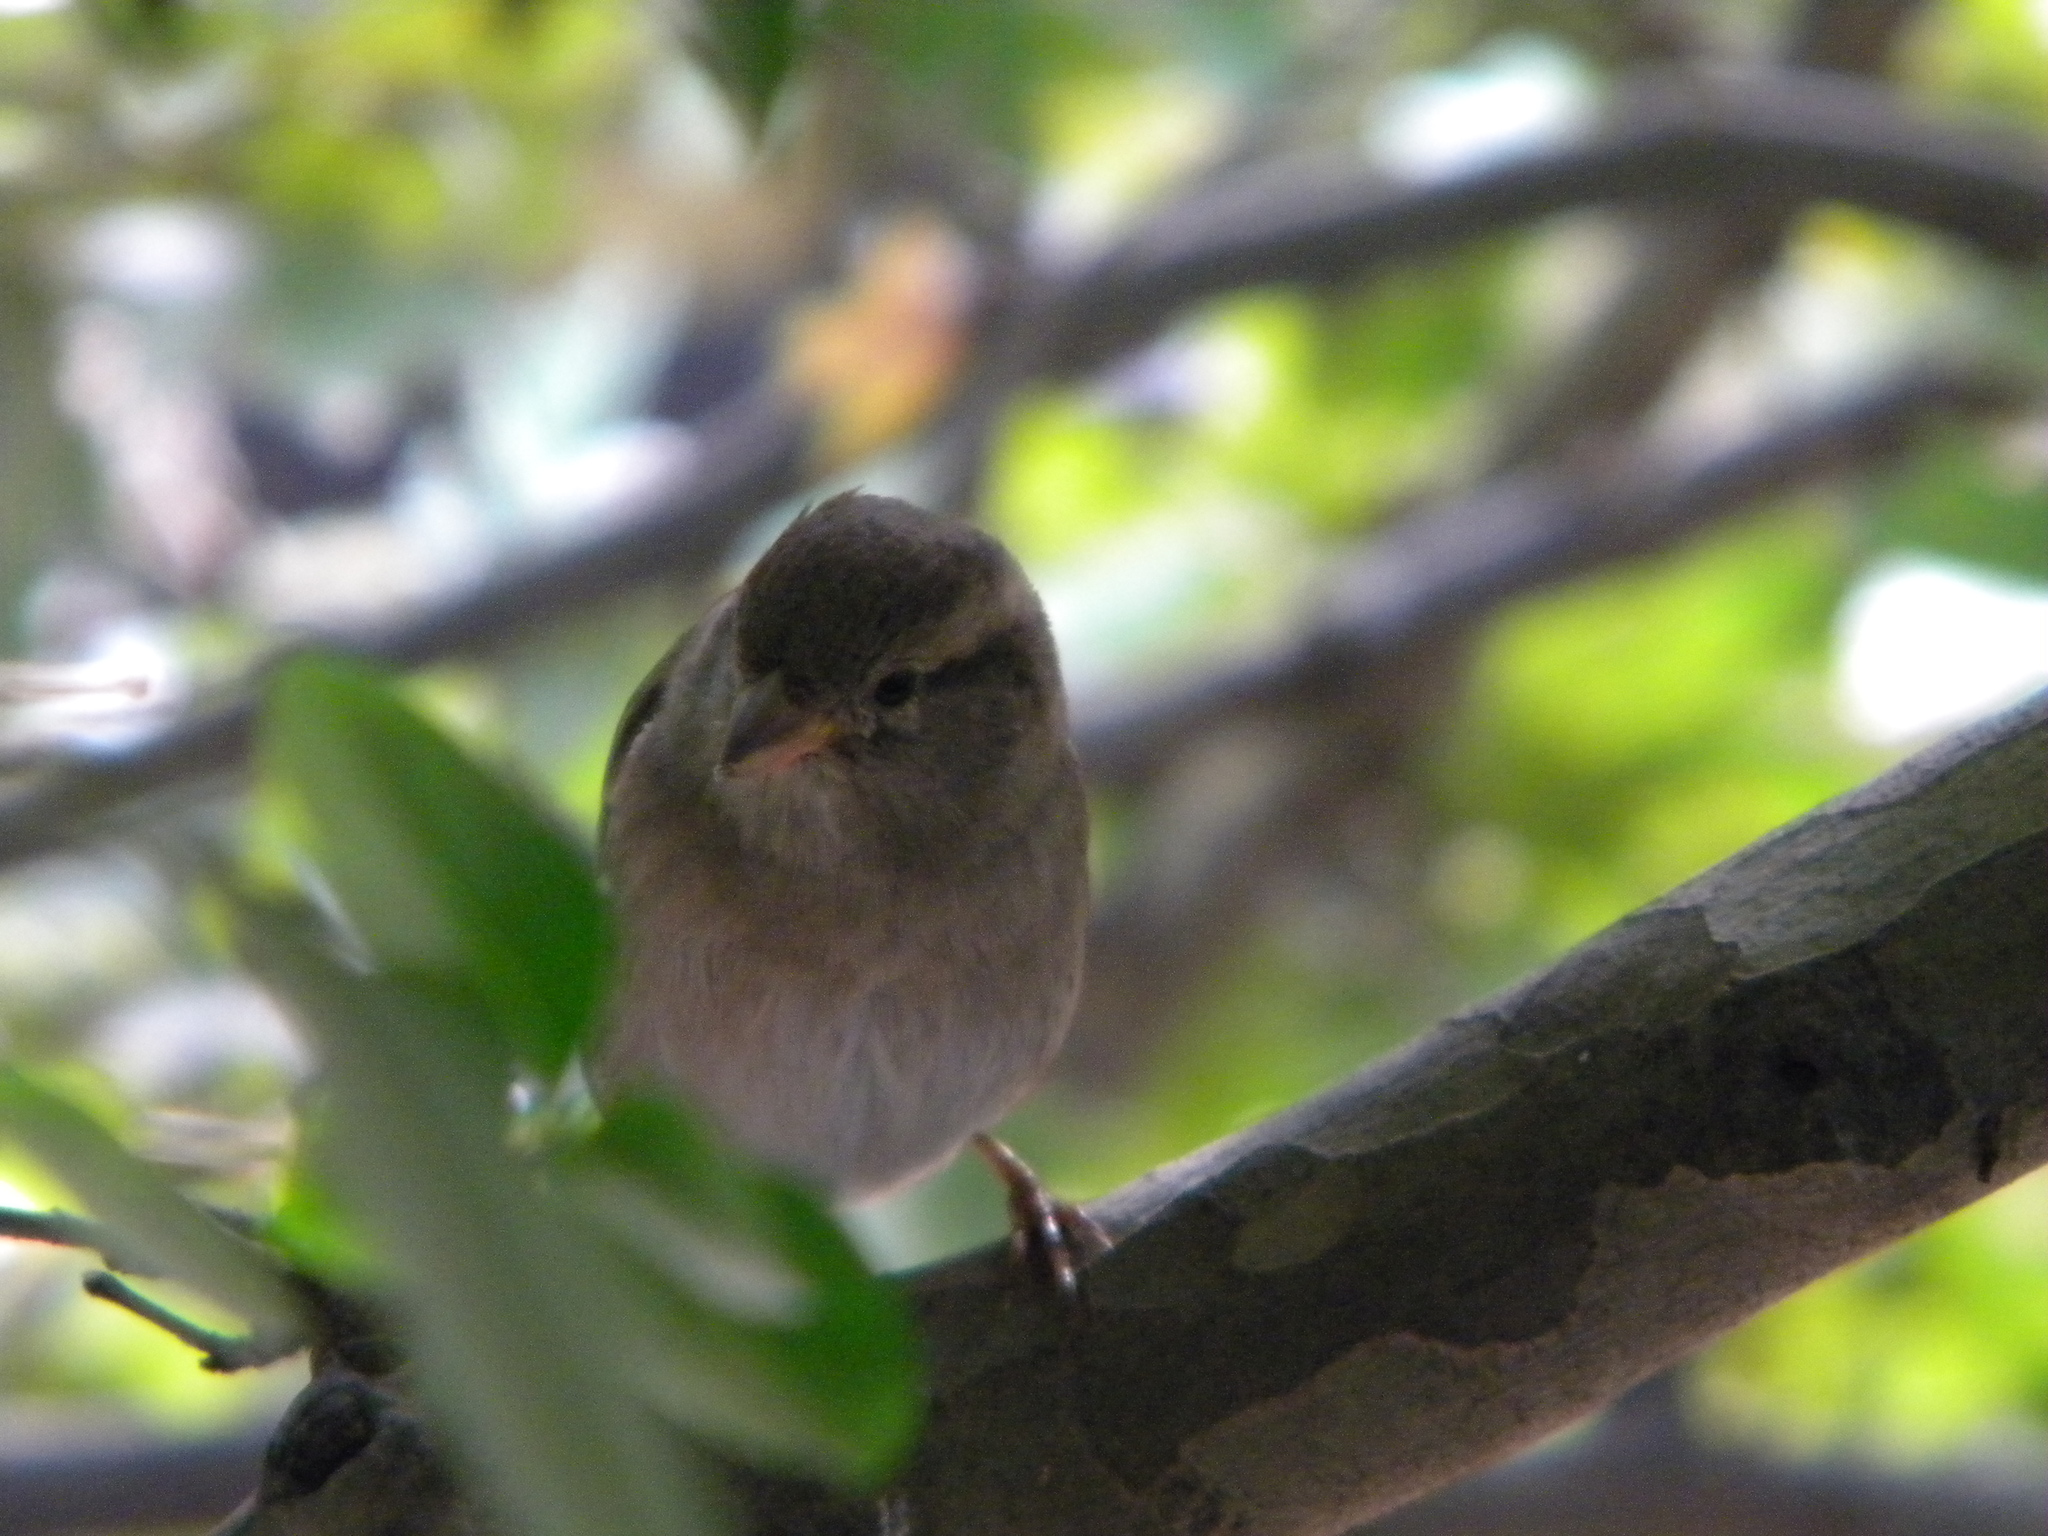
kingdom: Animalia
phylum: Chordata
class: Aves
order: Passeriformes
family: Passeridae
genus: Passer
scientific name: Passer domesticus
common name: House sparrow
